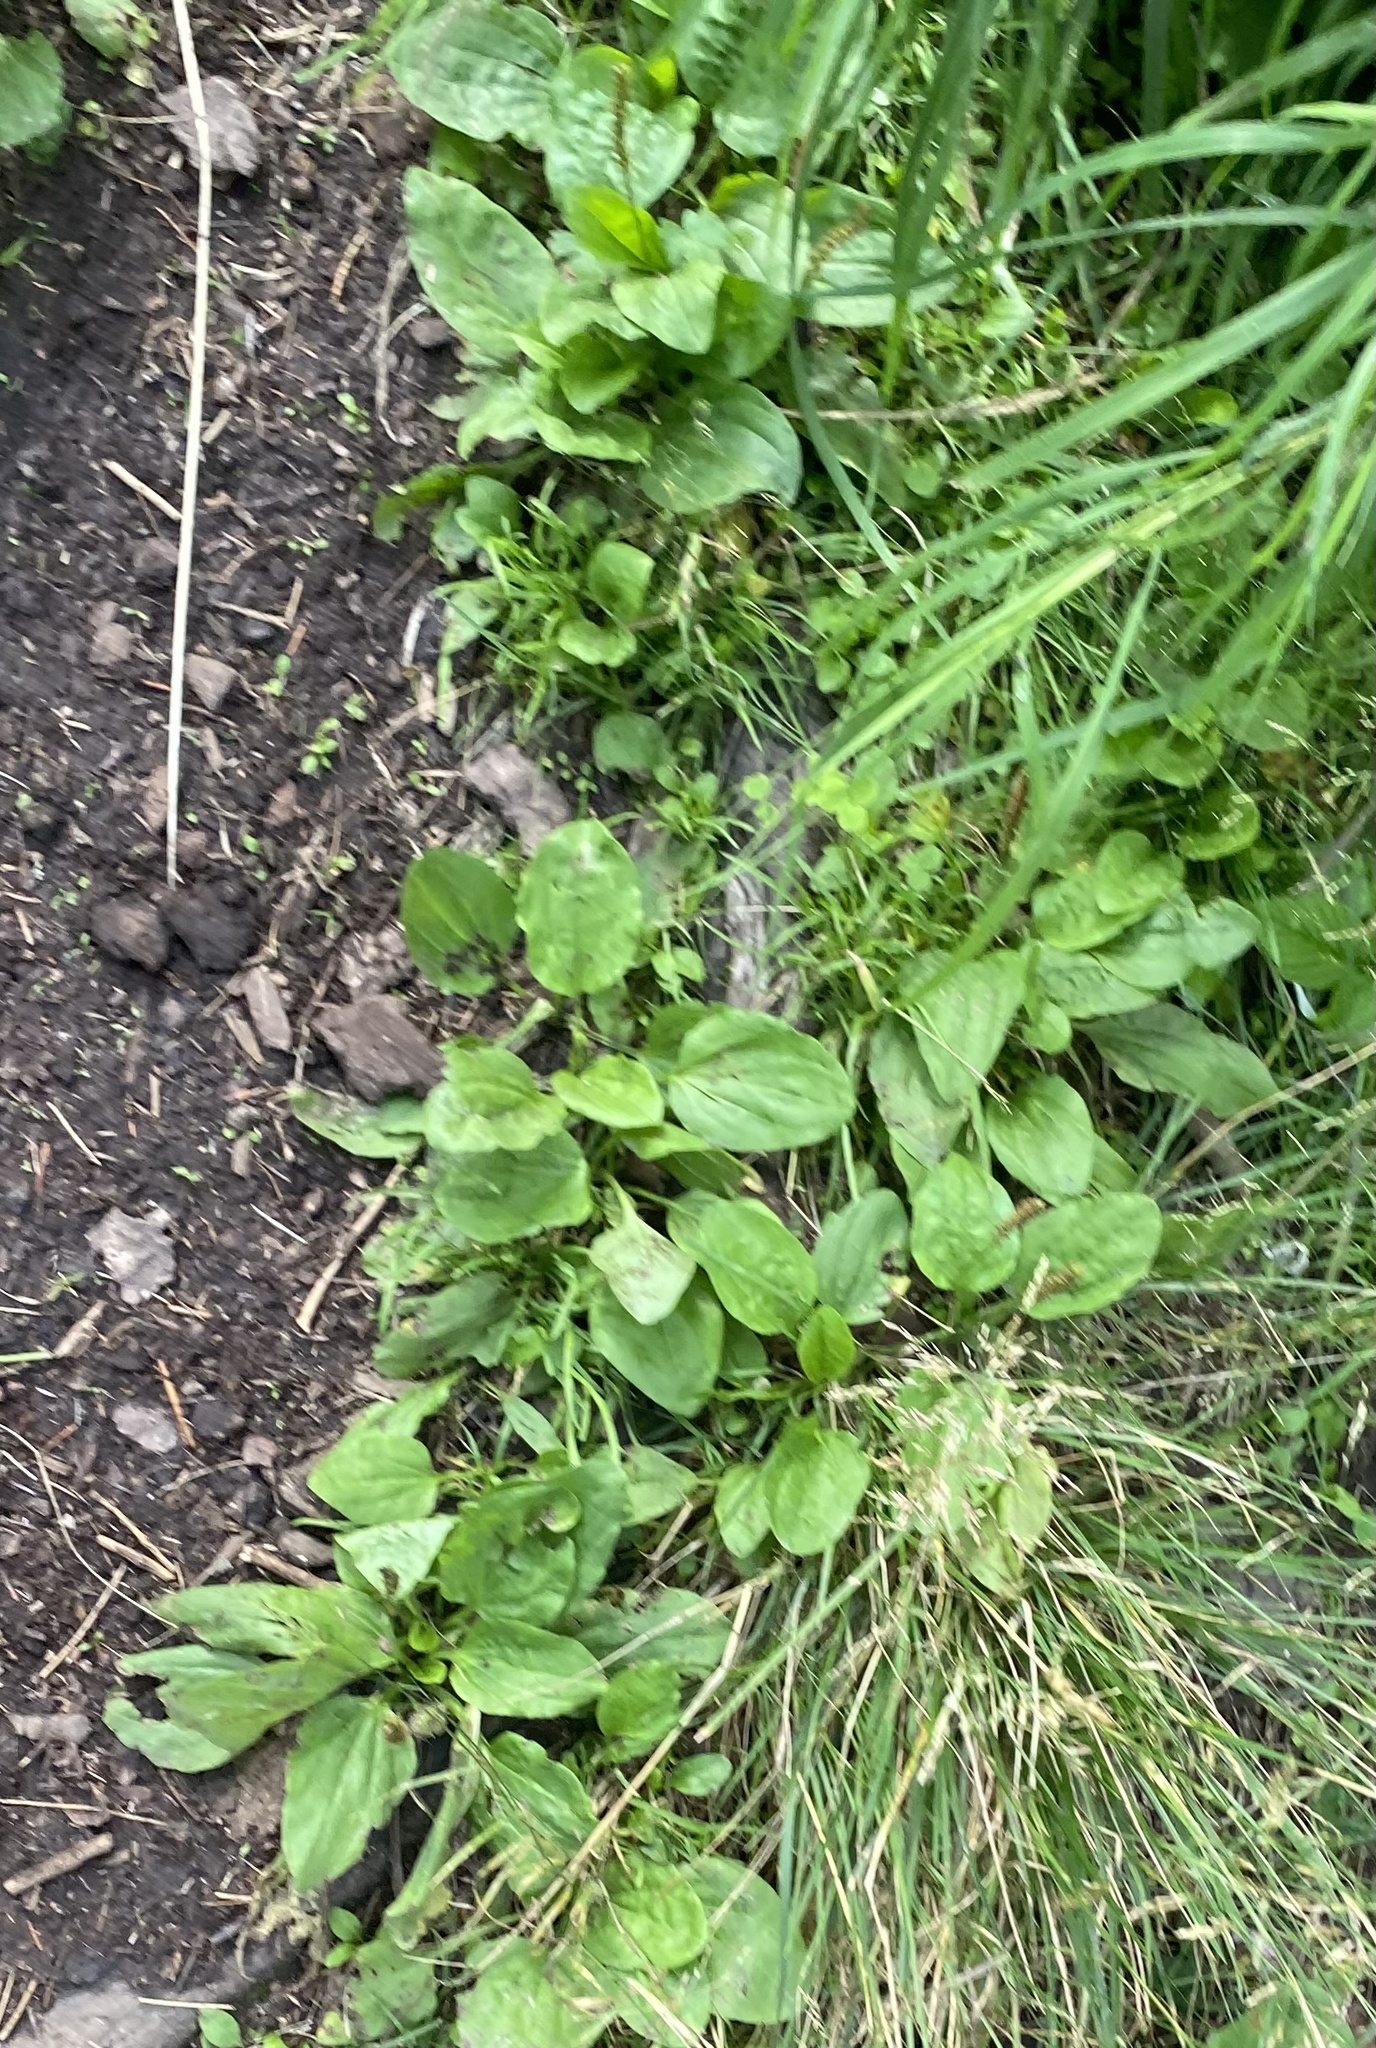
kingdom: Plantae
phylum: Tracheophyta
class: Magnoliopsida
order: Lamiales
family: Plantaginaceae
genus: Plantago
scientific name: Plantago major
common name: Common plantain
